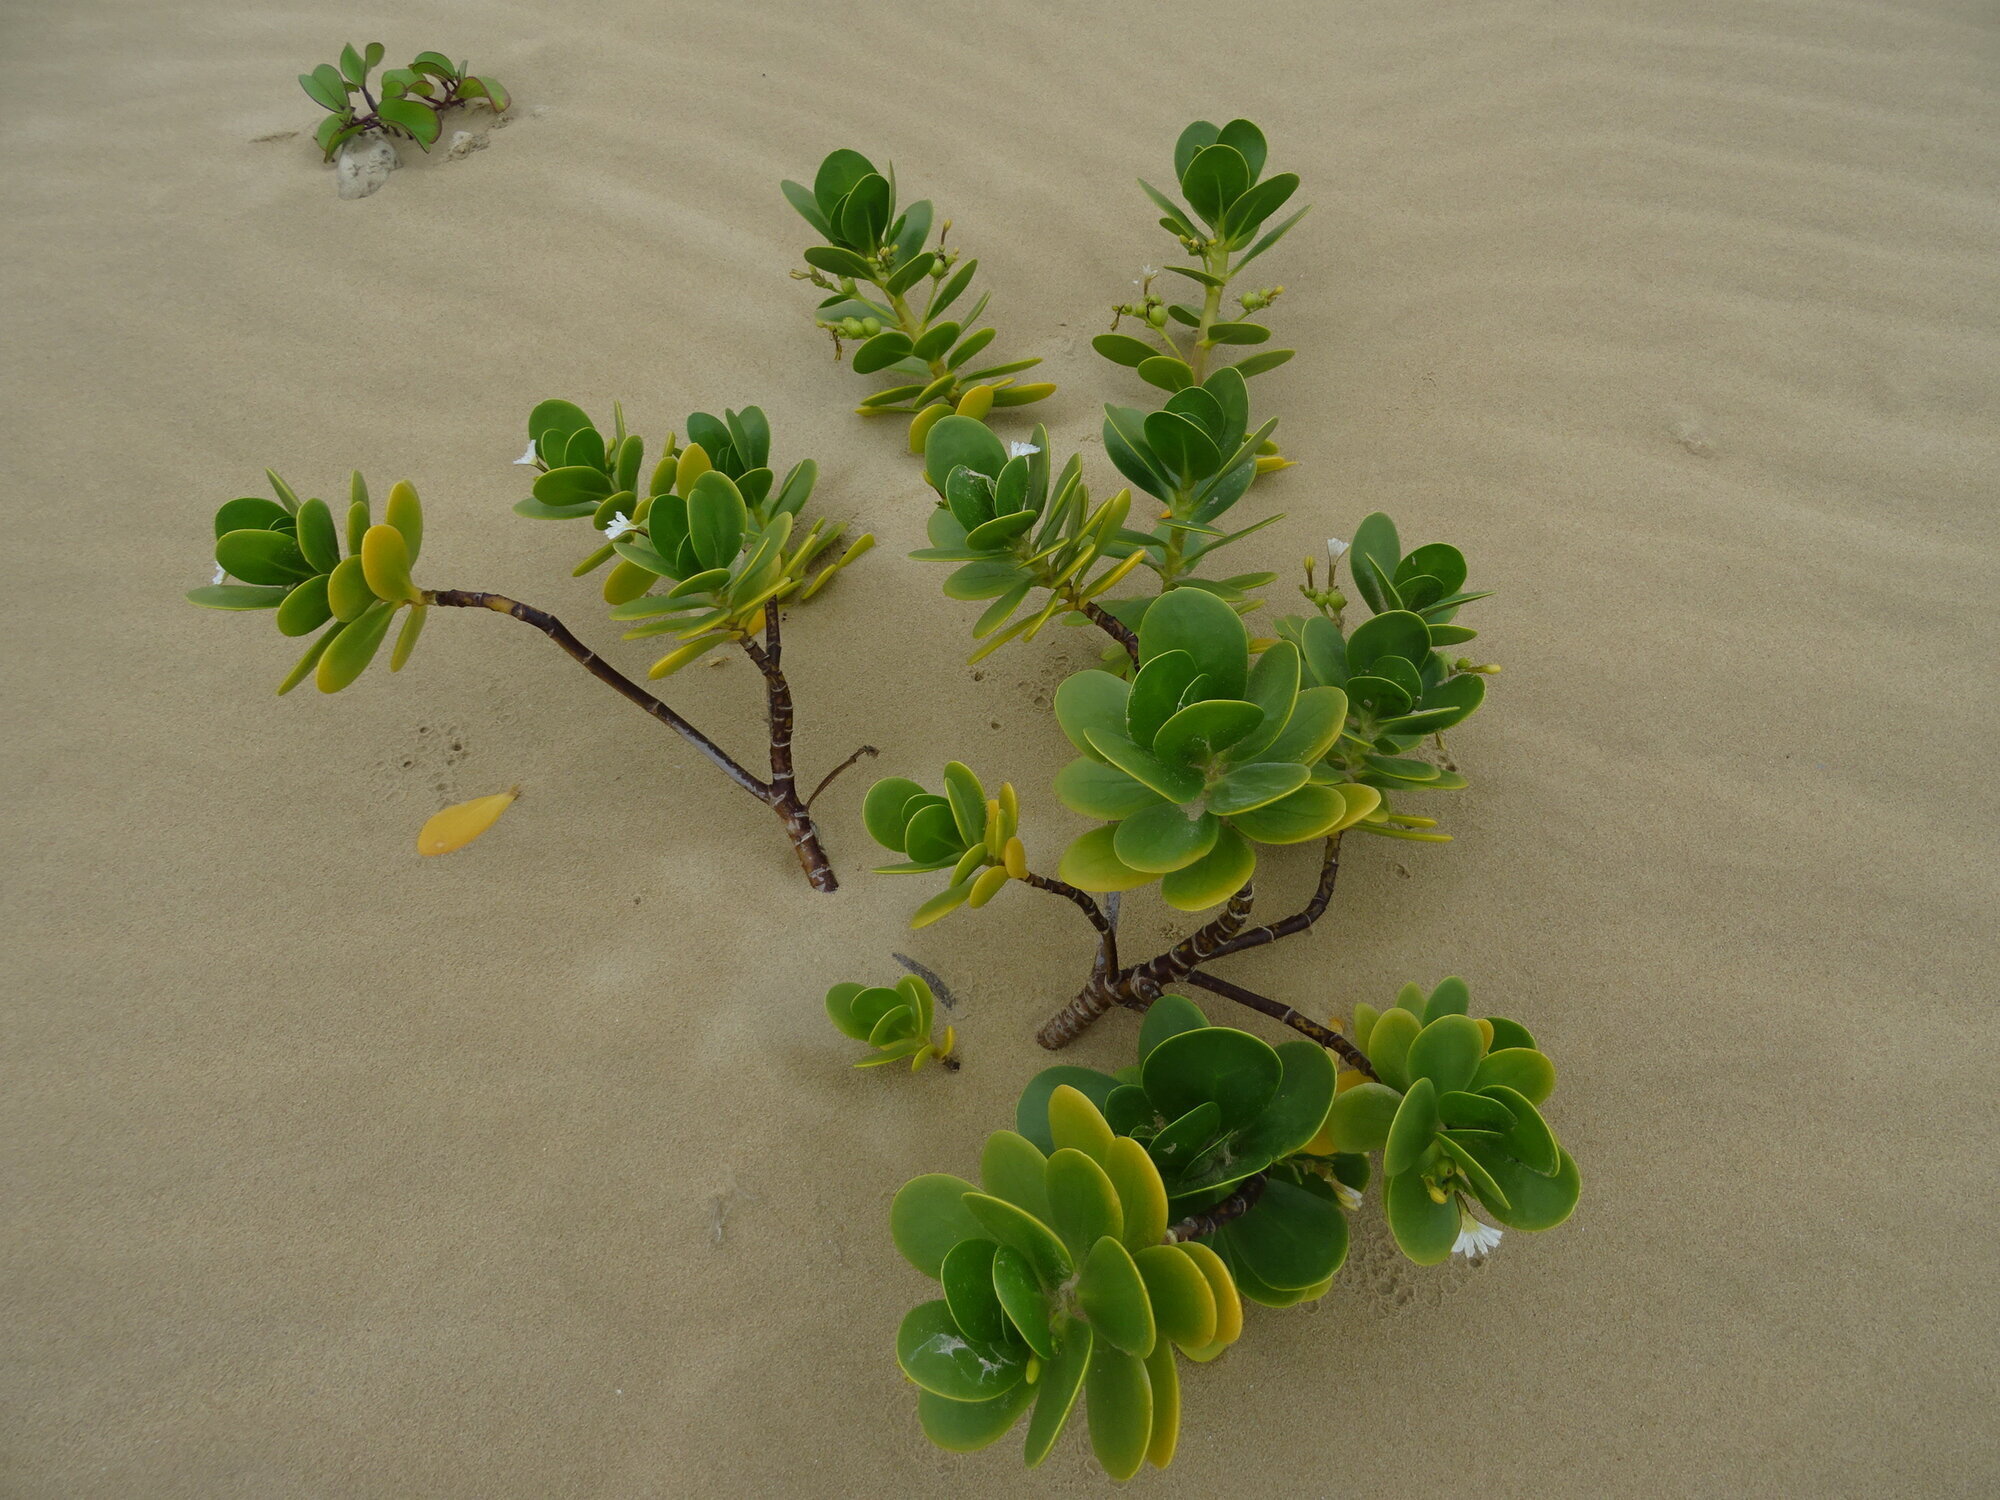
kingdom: Plantae
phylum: Tracheophyta
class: Magnoliopsida
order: Asterales
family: Goodeniaceae
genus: Scaevola
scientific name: Scaevola plumieri
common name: Gull feed
